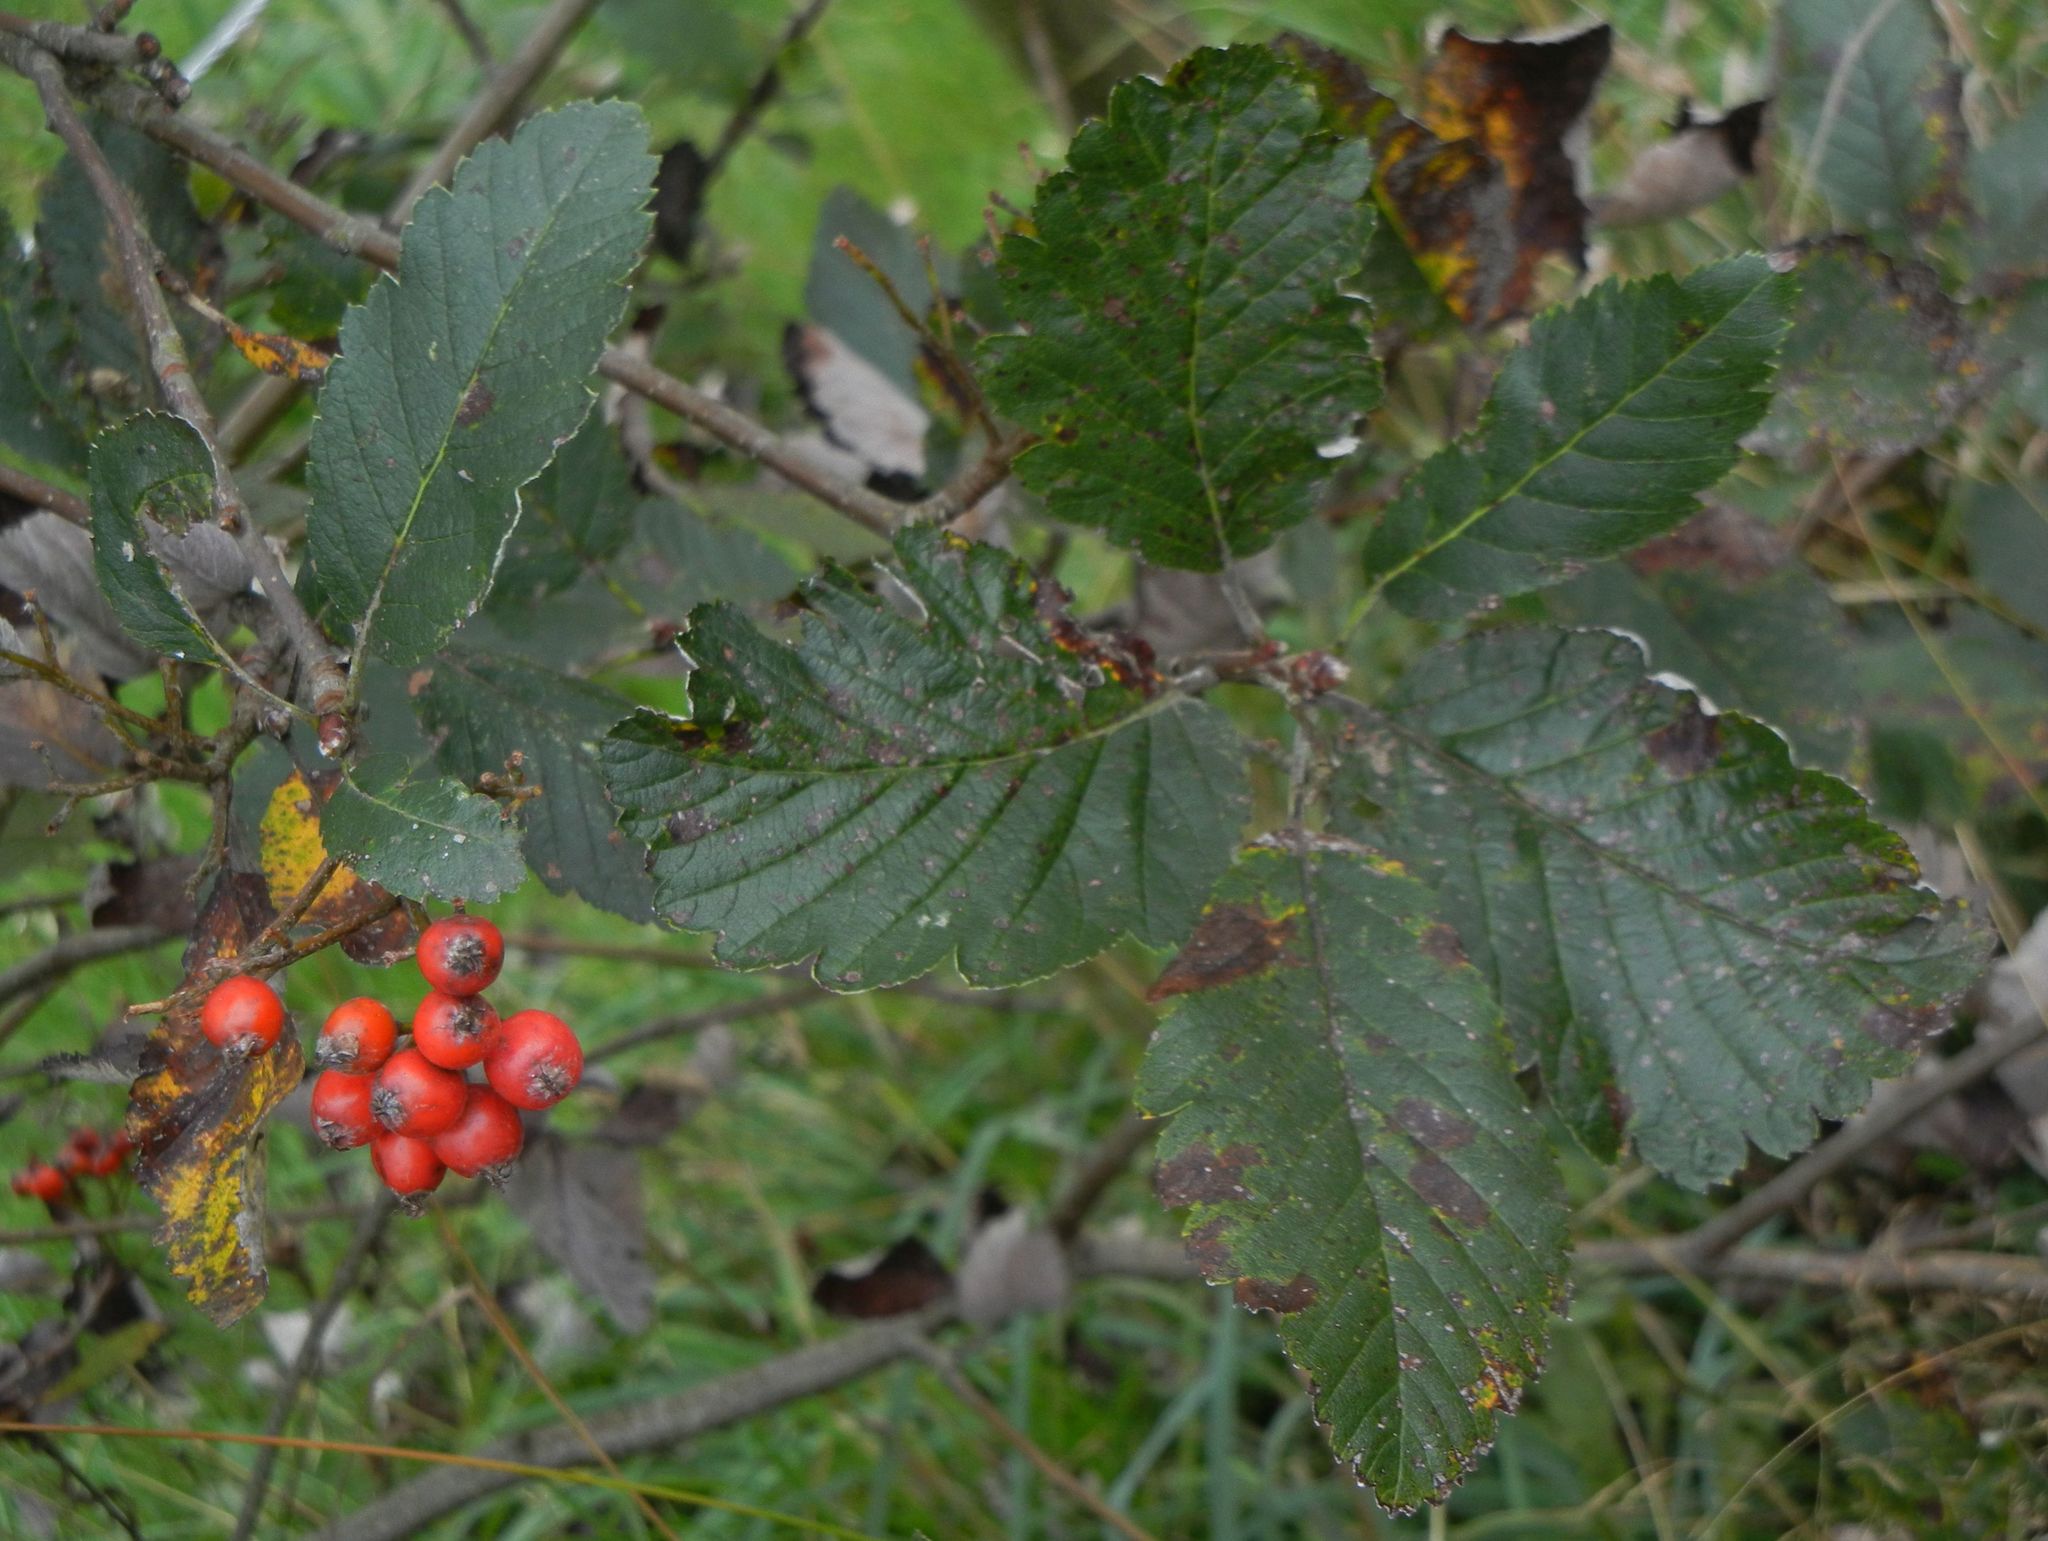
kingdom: Plantae
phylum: Tracheophyta
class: Magnoliopsida
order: Rosales
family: Rosaceae
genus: Aria
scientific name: Aria edulis
